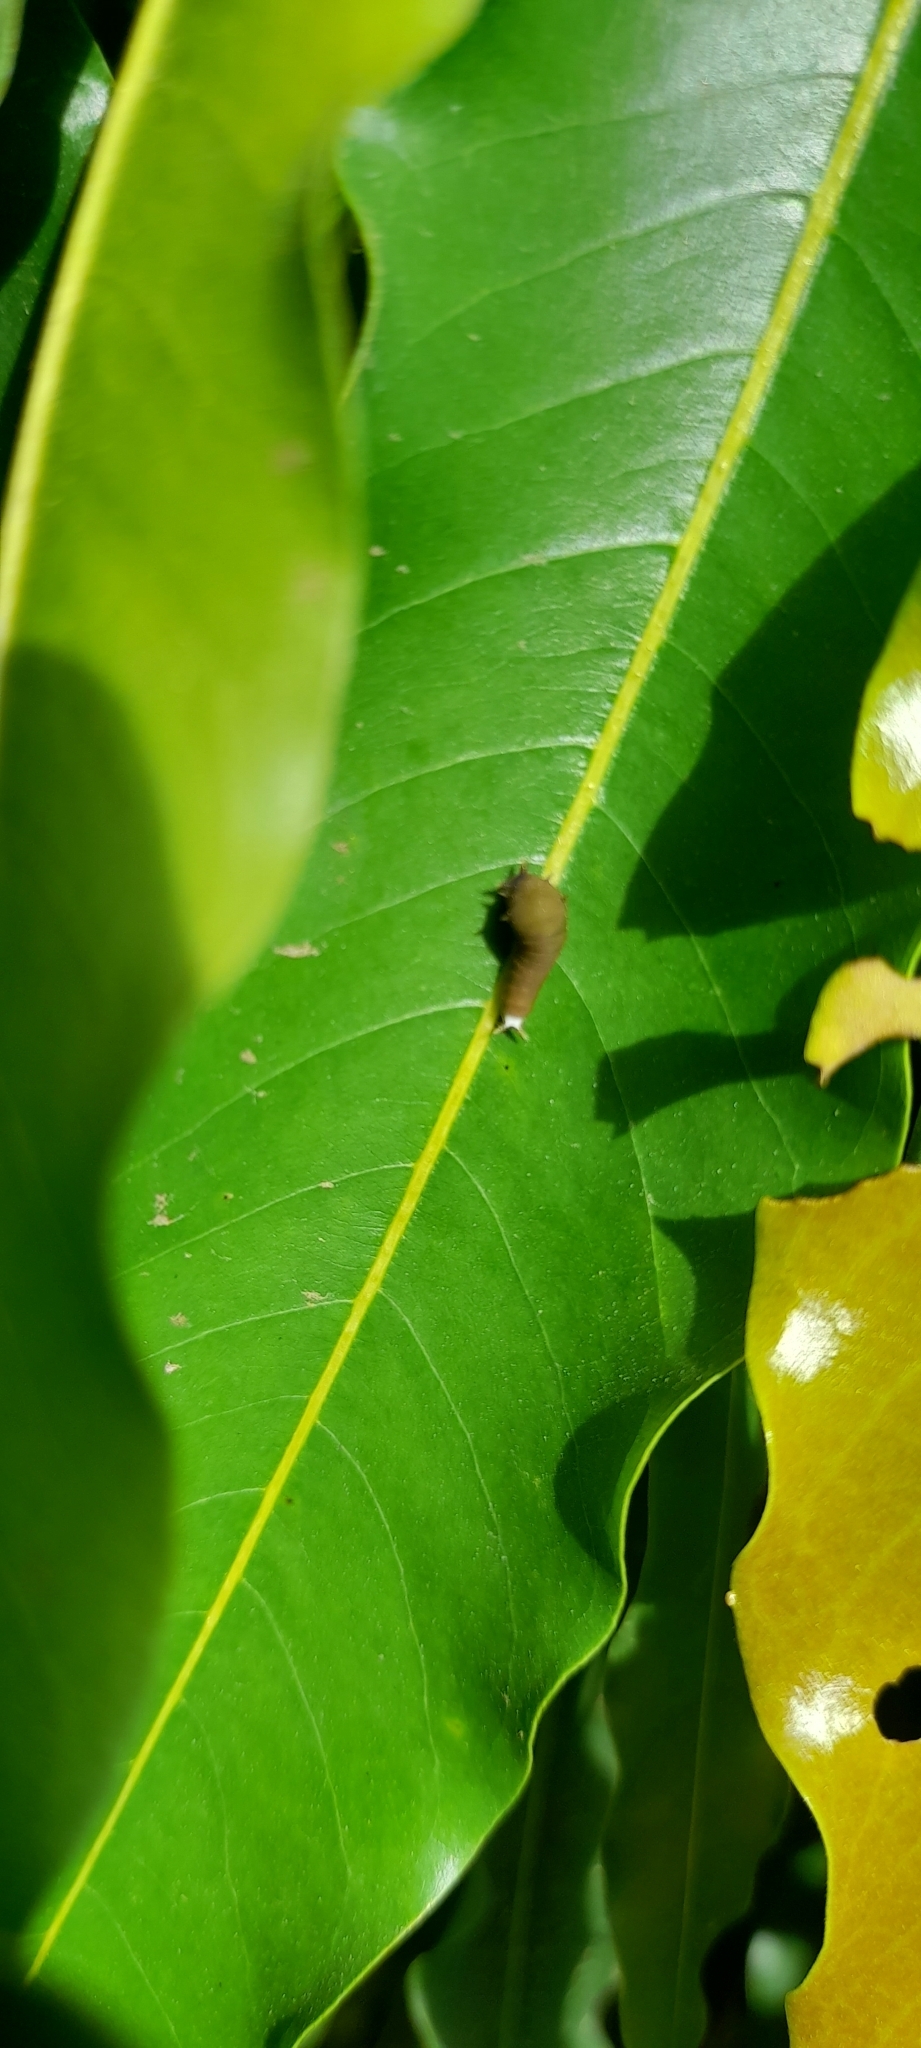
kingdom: Animalia
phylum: Arthropoda
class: Insecta
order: Lepidoptera
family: Papilionidae
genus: Graphium
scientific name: Graphium doson
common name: Common jay
